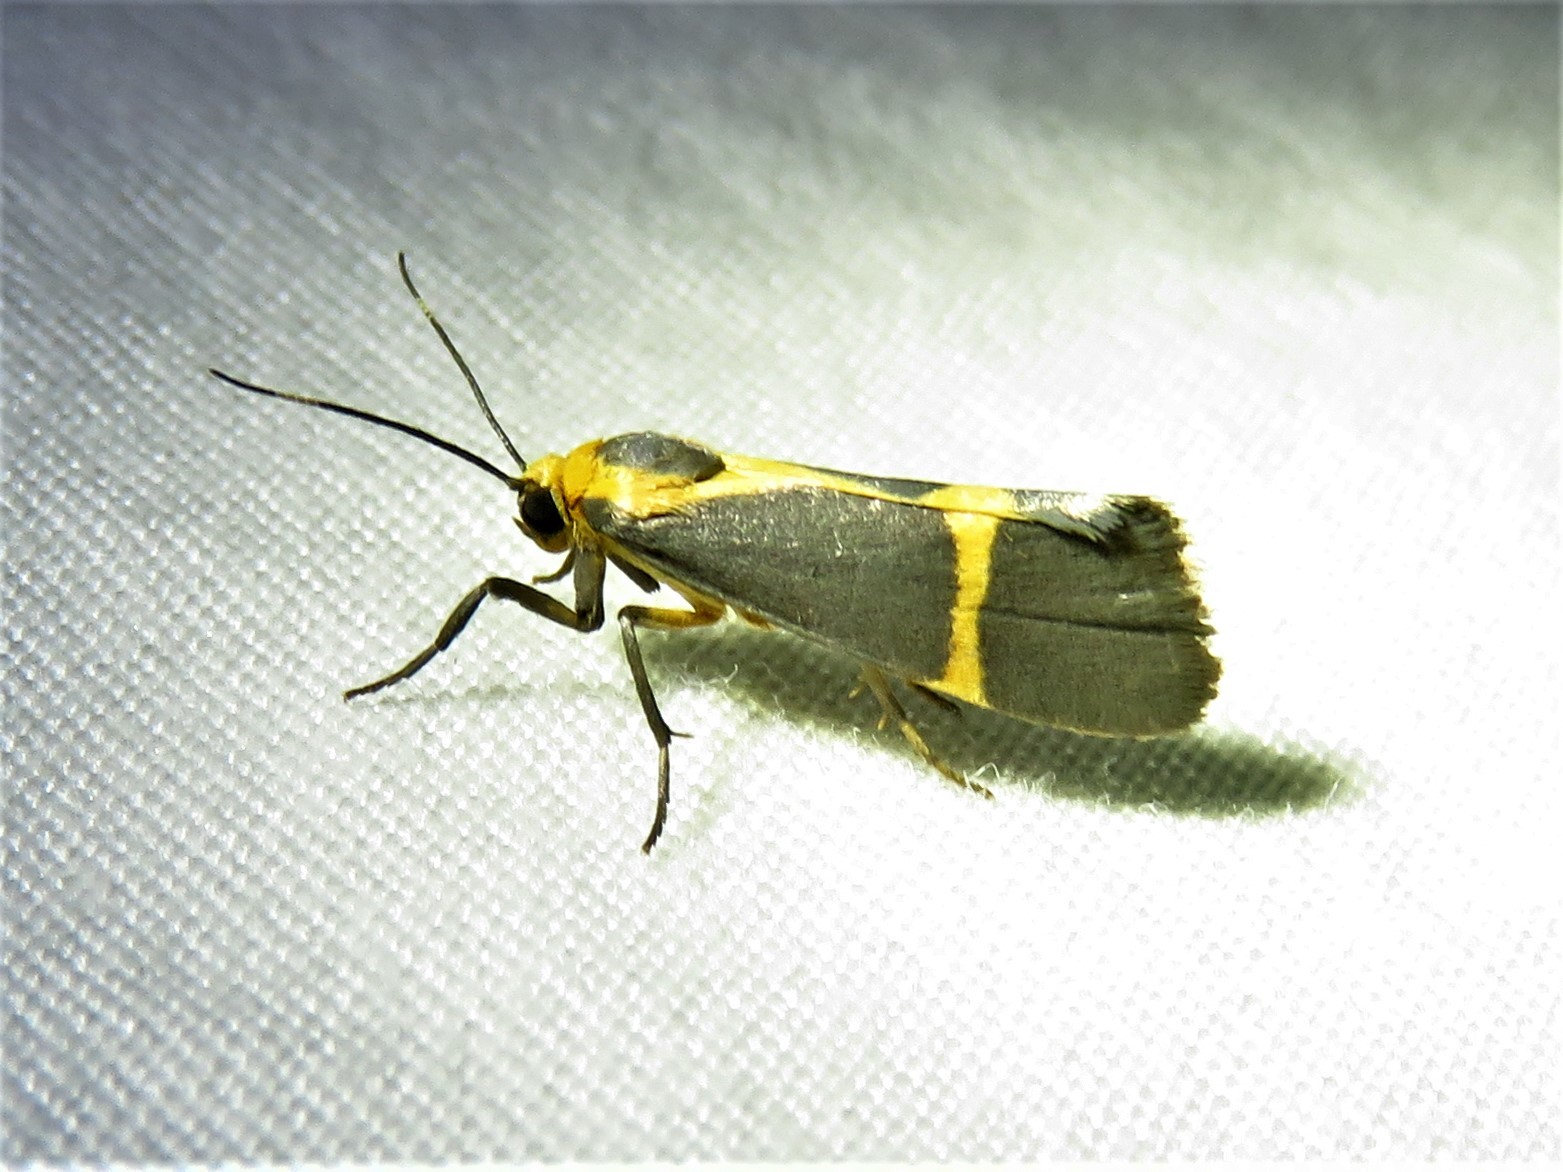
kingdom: Animalia
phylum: Arthropoda
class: Insecta
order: Lepidoptera
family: Erebidae
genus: Cisthene
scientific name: Cisthene tenuifascia
